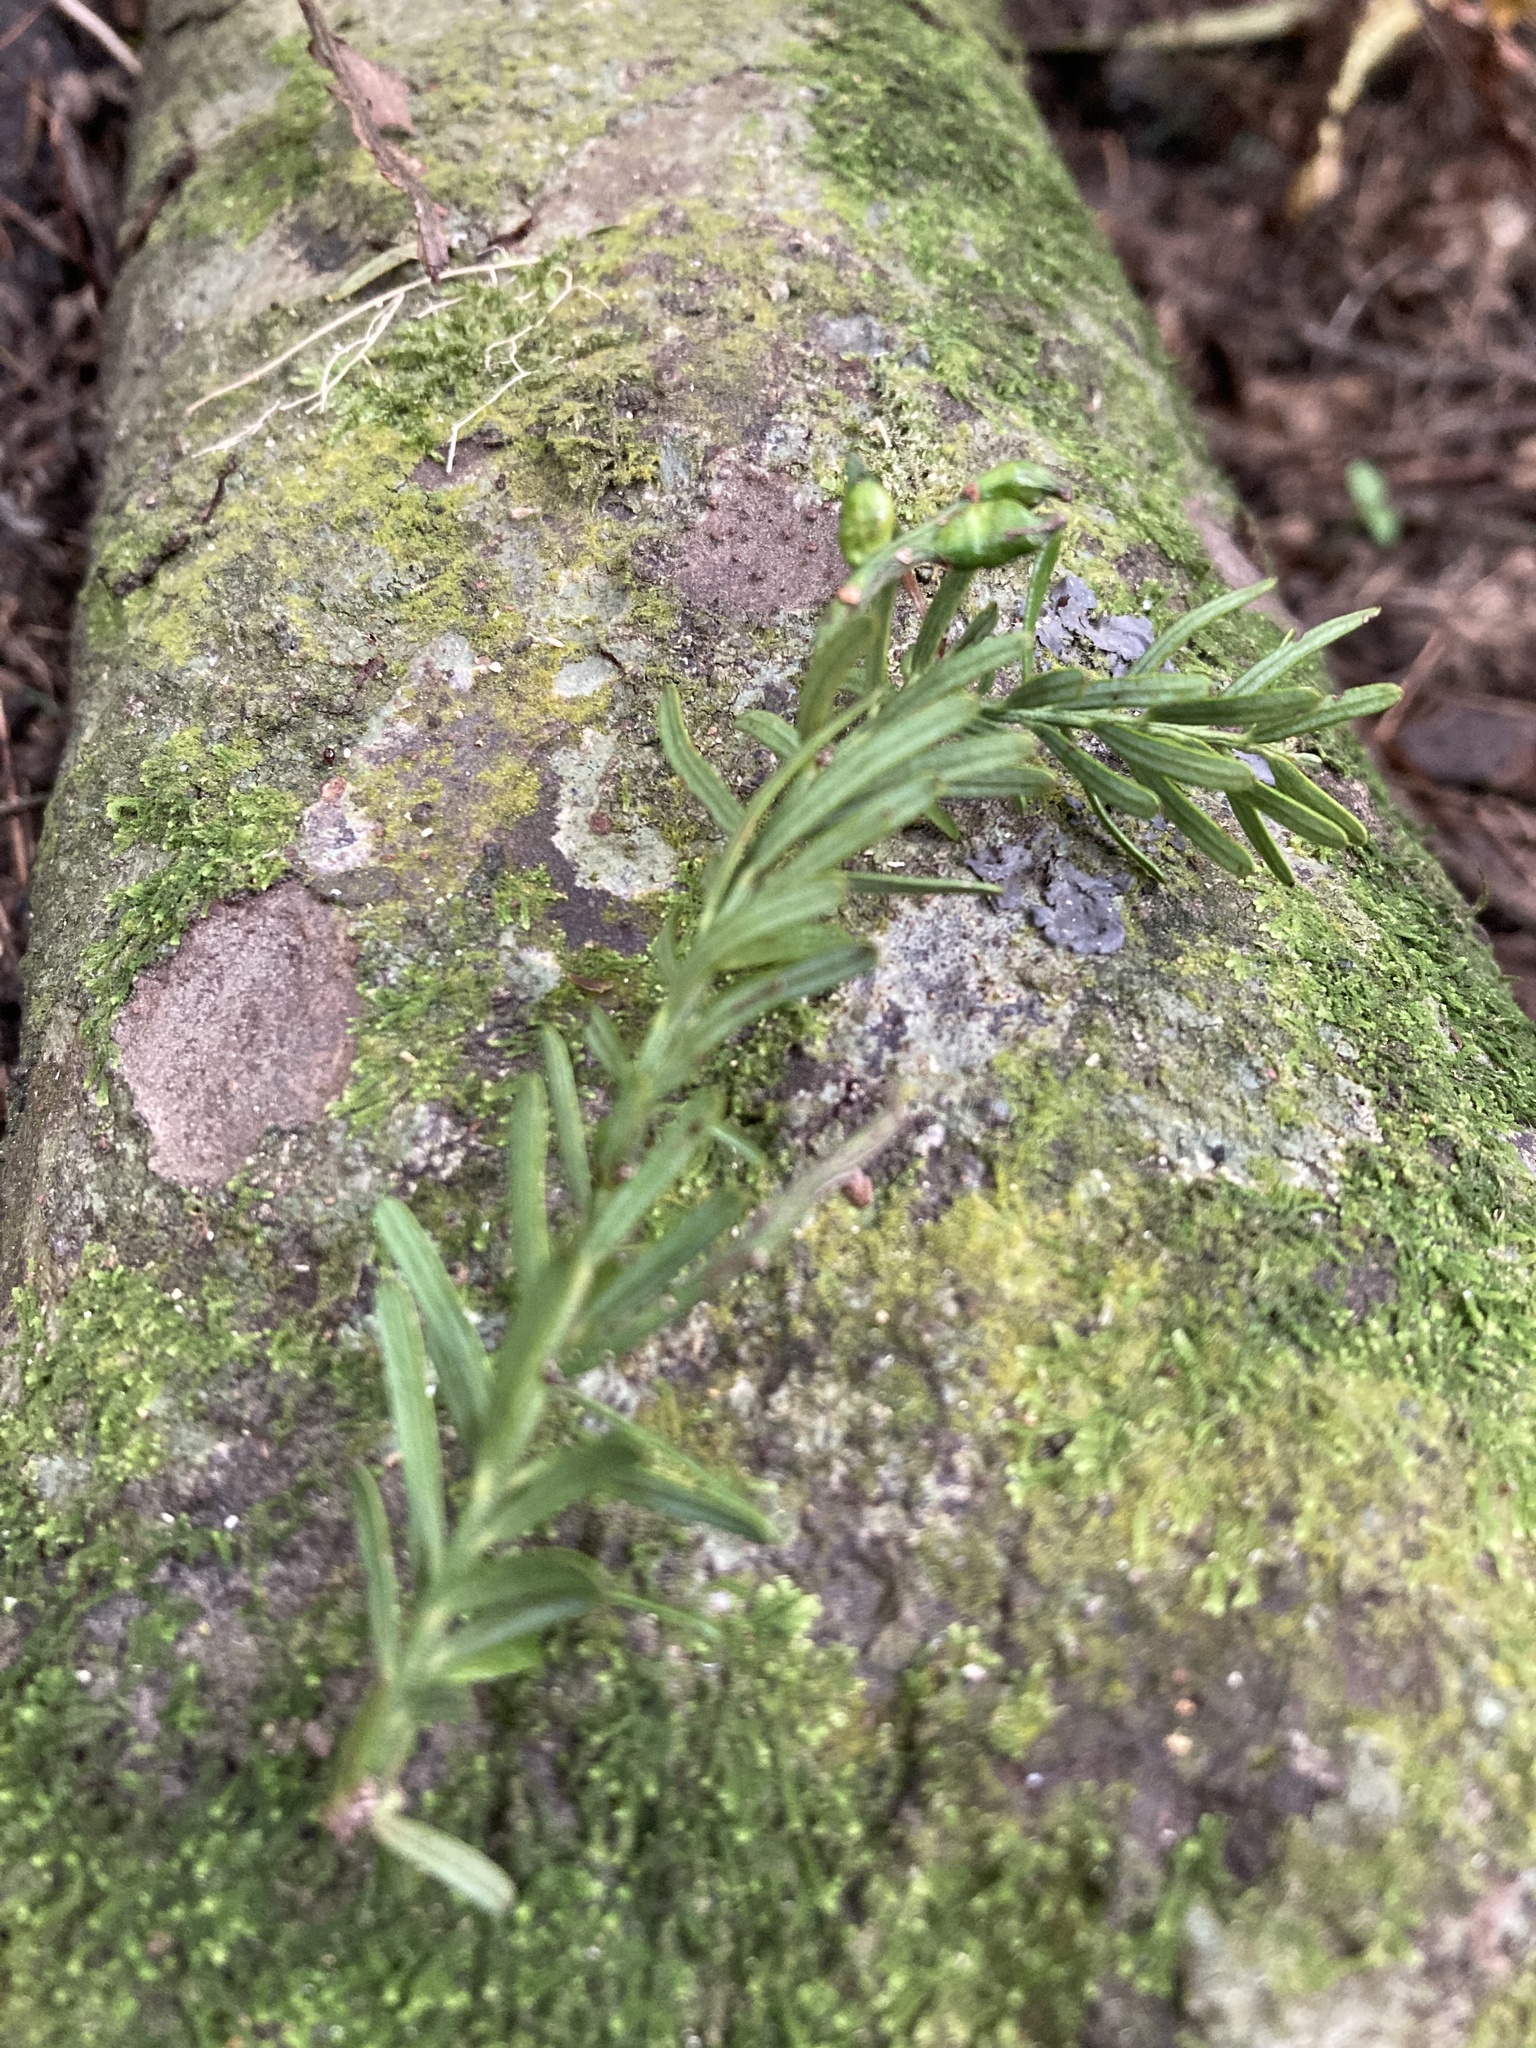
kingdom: Plantae
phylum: Tracheophyta
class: Pinopsida
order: Pinales
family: Podocarpaceae
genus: Prumnopitys
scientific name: Prumnopitys taxifolia
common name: Matai
